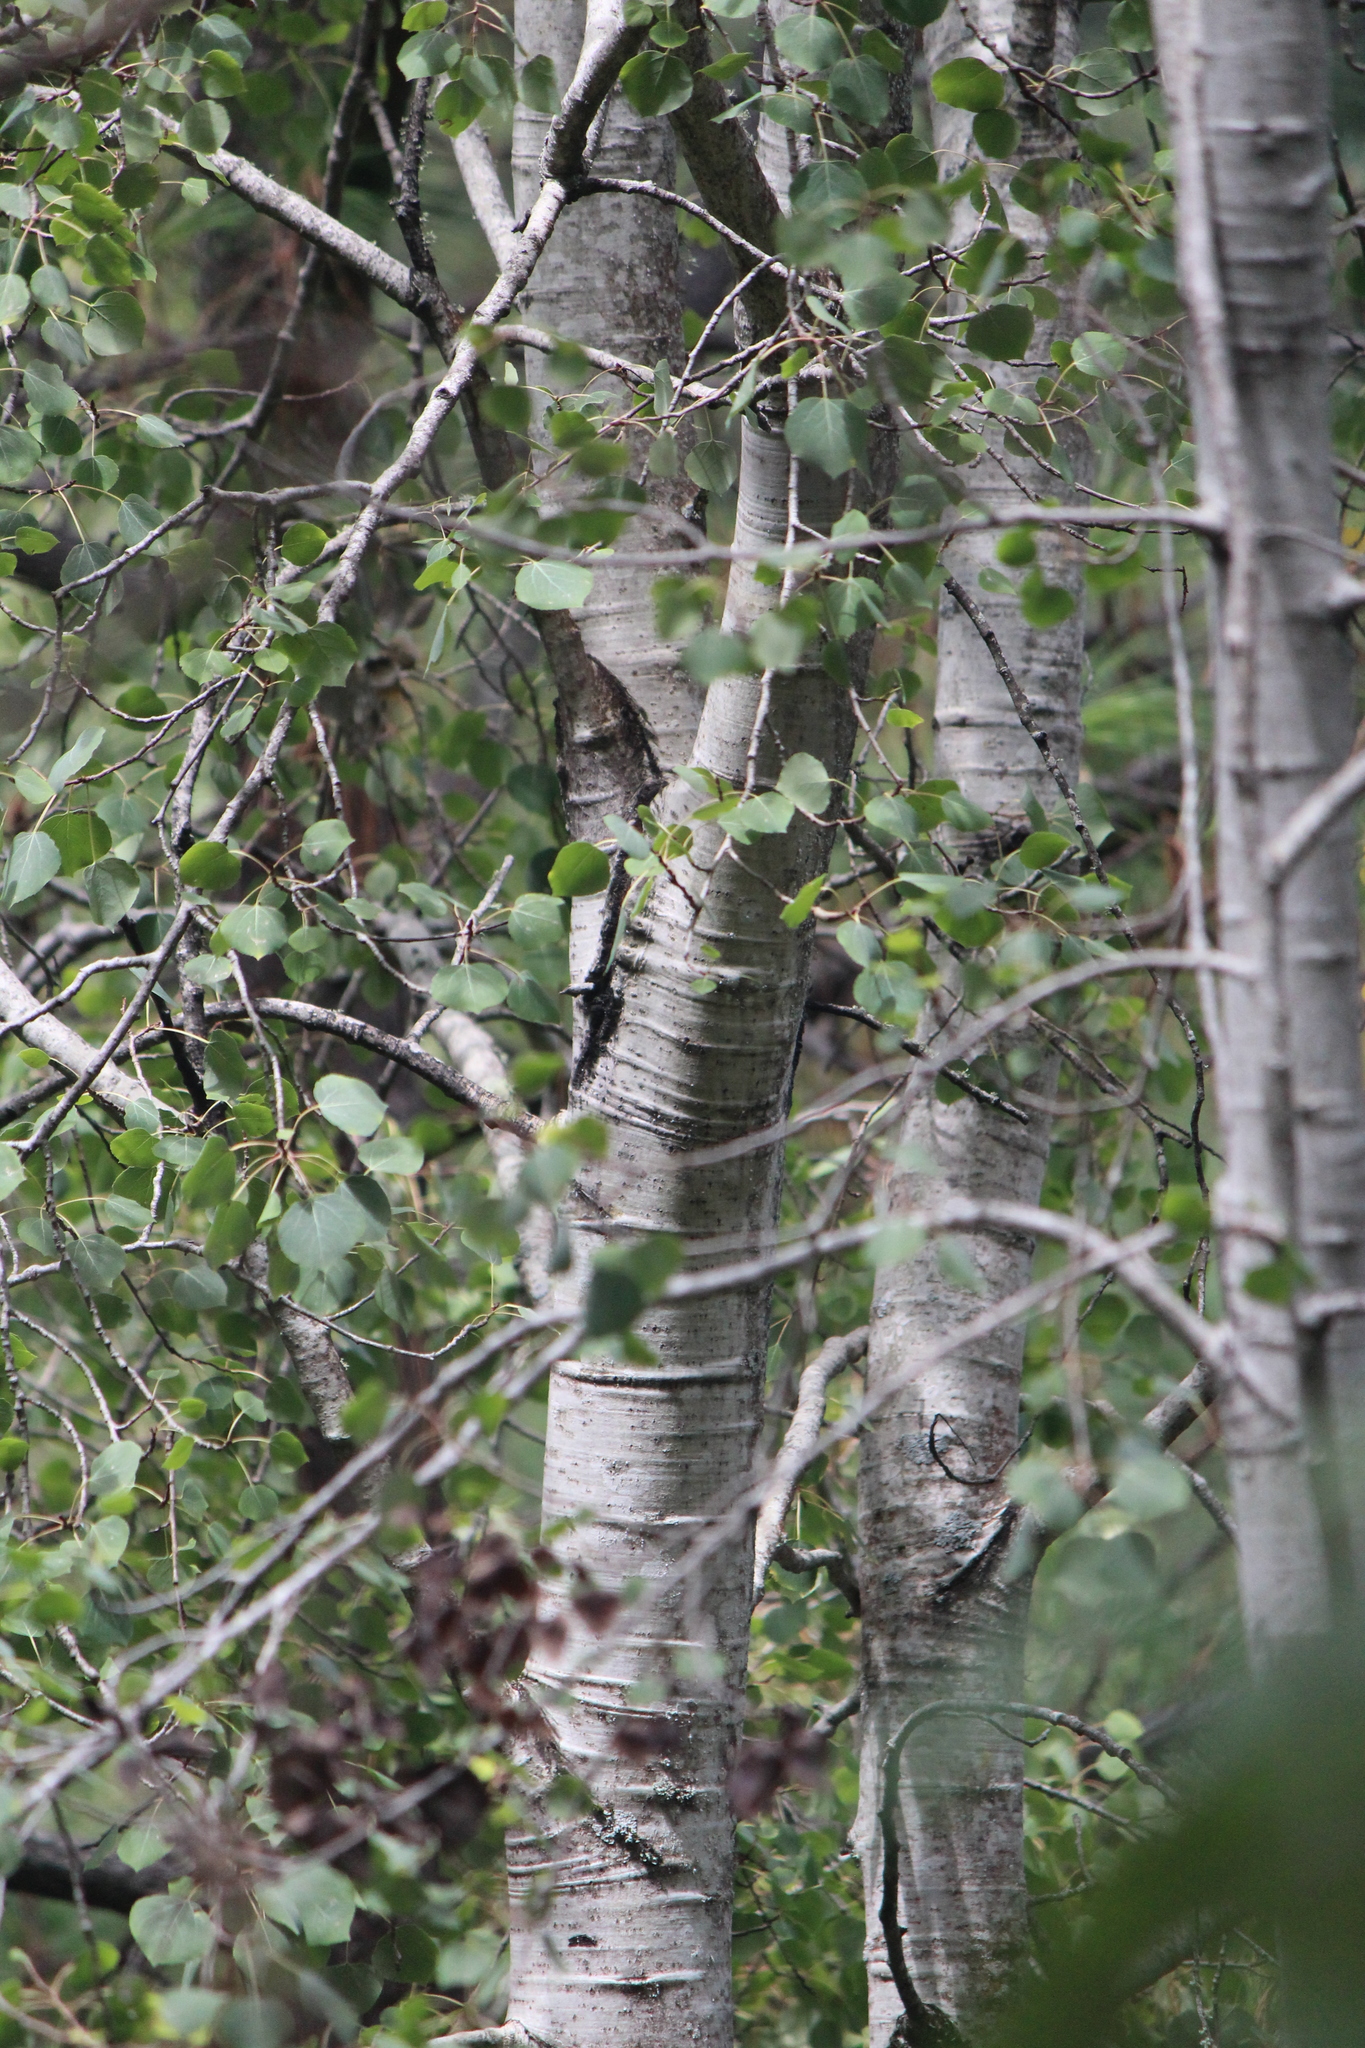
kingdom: Plantae
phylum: Tracheophyta
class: Magnoliopsida
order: Malpighiales
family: Salicaceae
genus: Populus
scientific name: Populus tremuloides
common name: Quaking aspen
